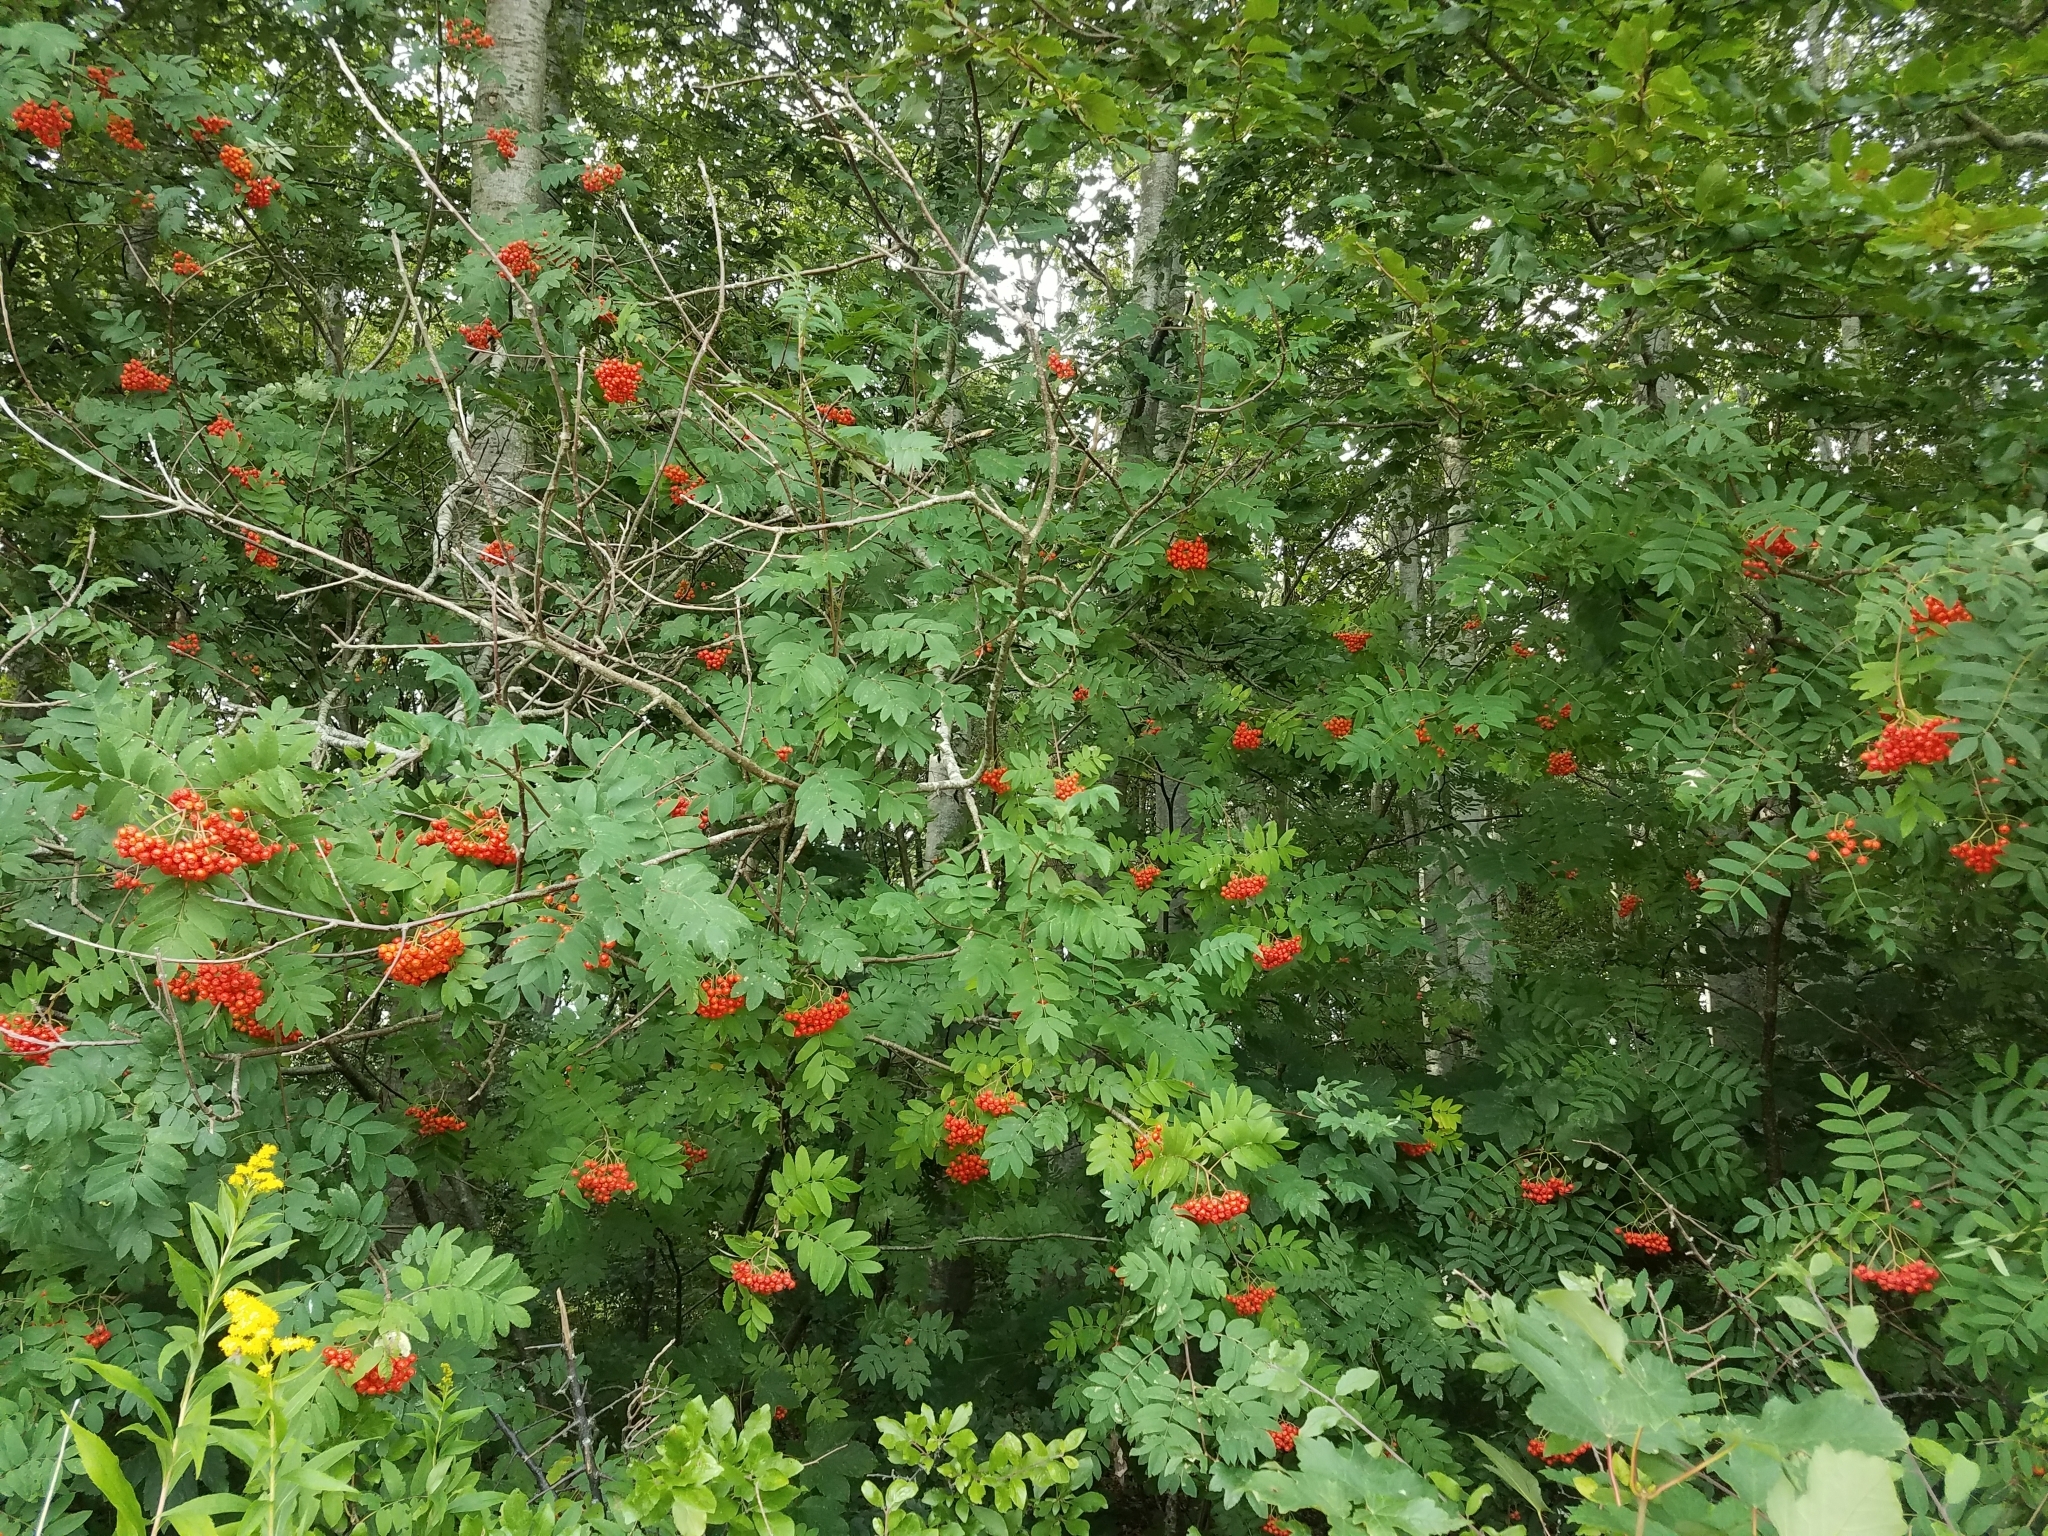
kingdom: Plantae
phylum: Tracheophyta
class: Magnoliopsida
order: Rosales
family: Rosaceae
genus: Sorbus
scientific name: Sorbus aucuparia
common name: Rowan
